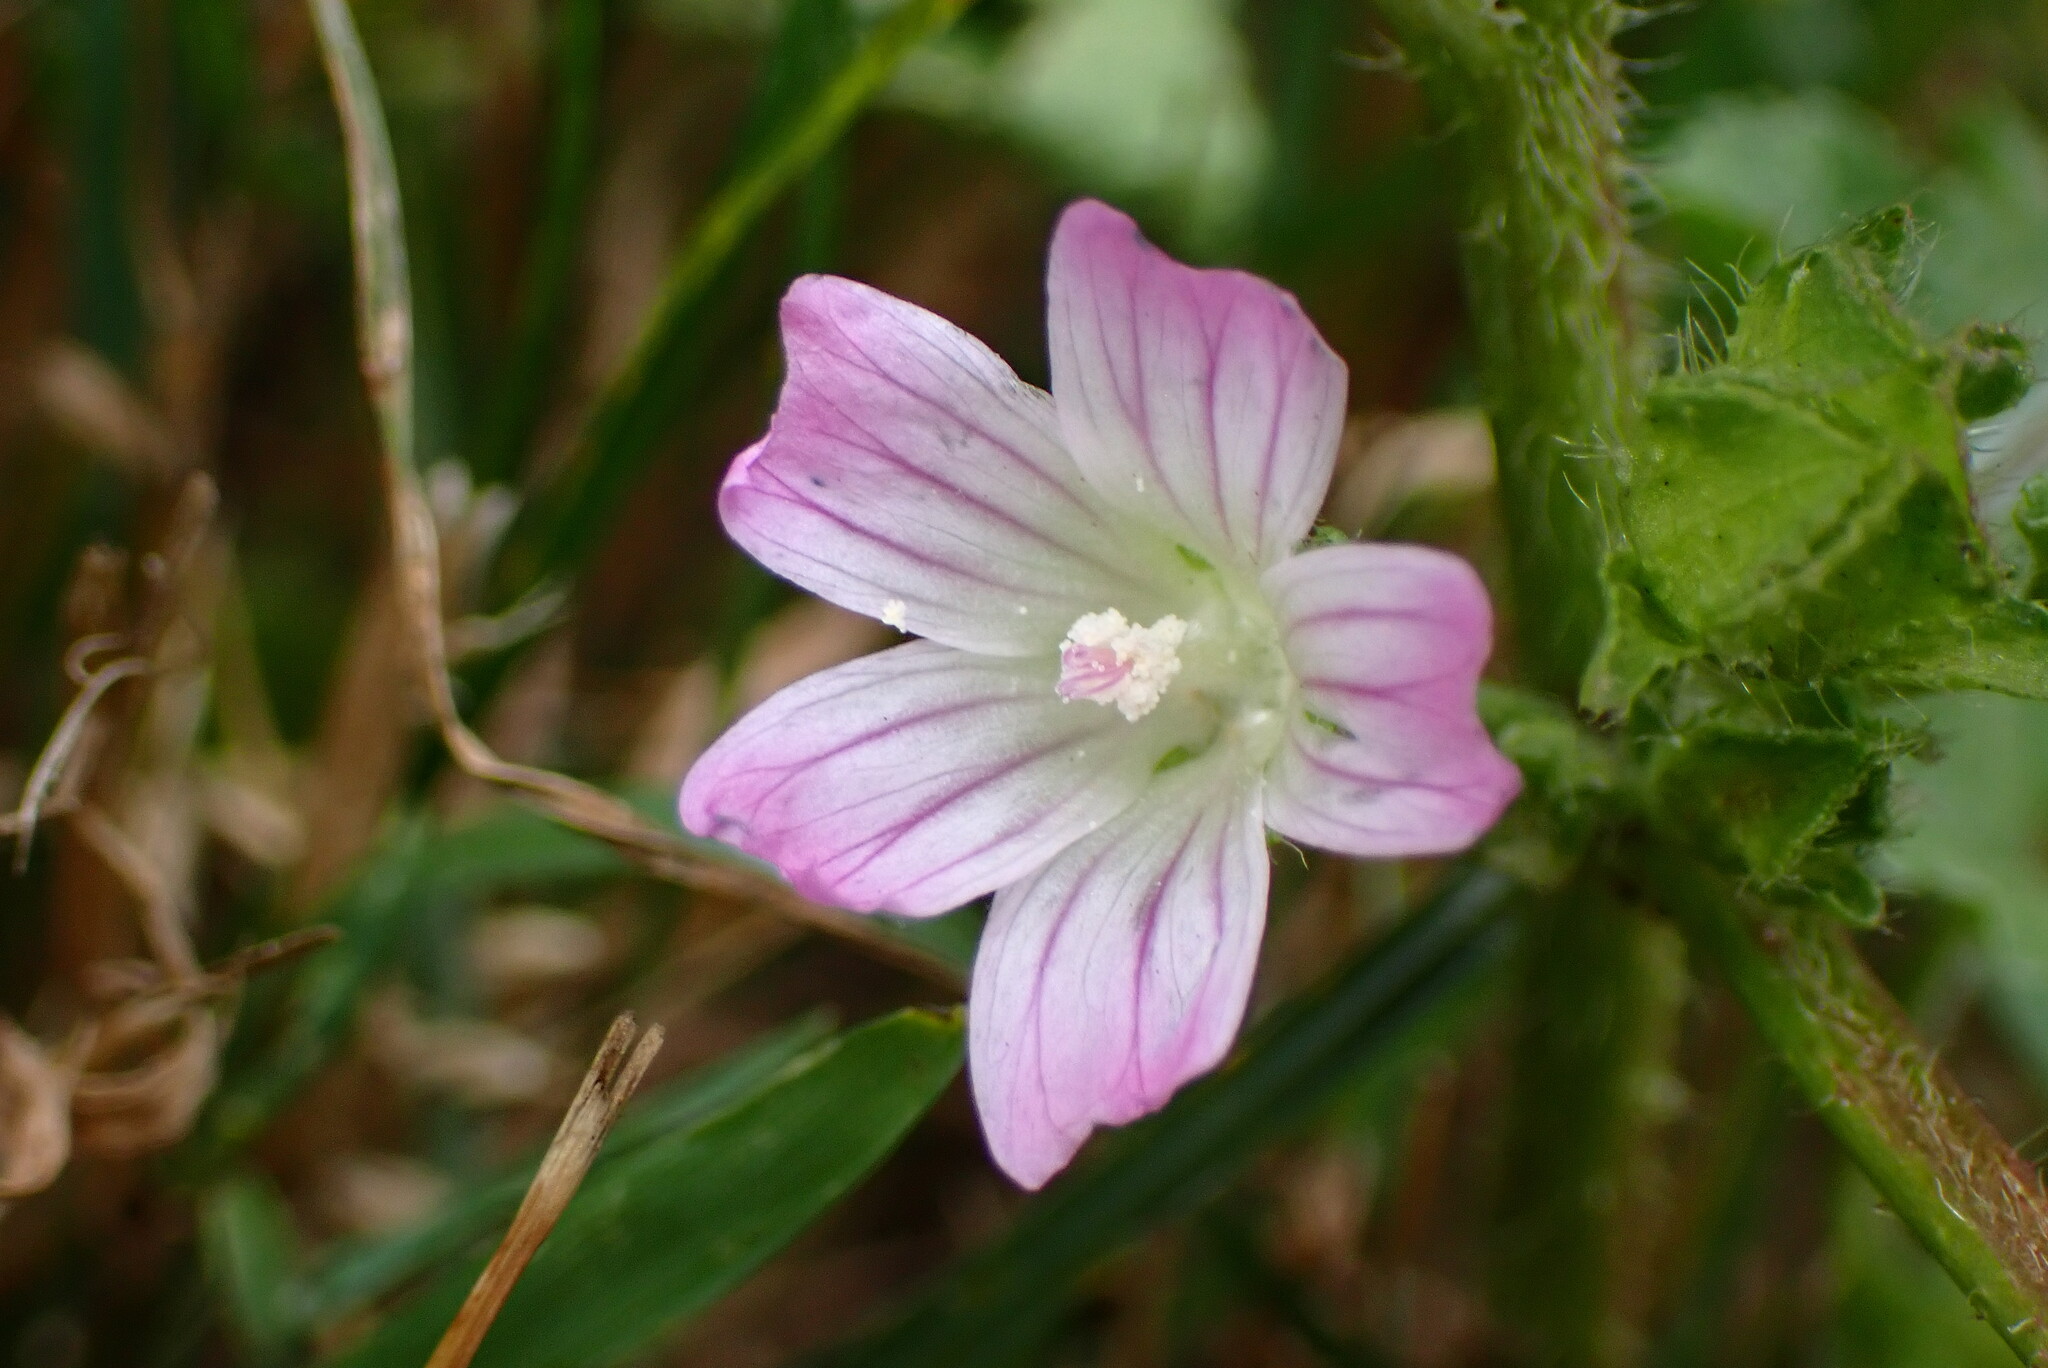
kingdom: Plantae
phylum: Tracheophyta
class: Magnoliopsida
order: Malvales
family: Malvaceae
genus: Malva
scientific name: Malva nicaeensis
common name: French mallow
